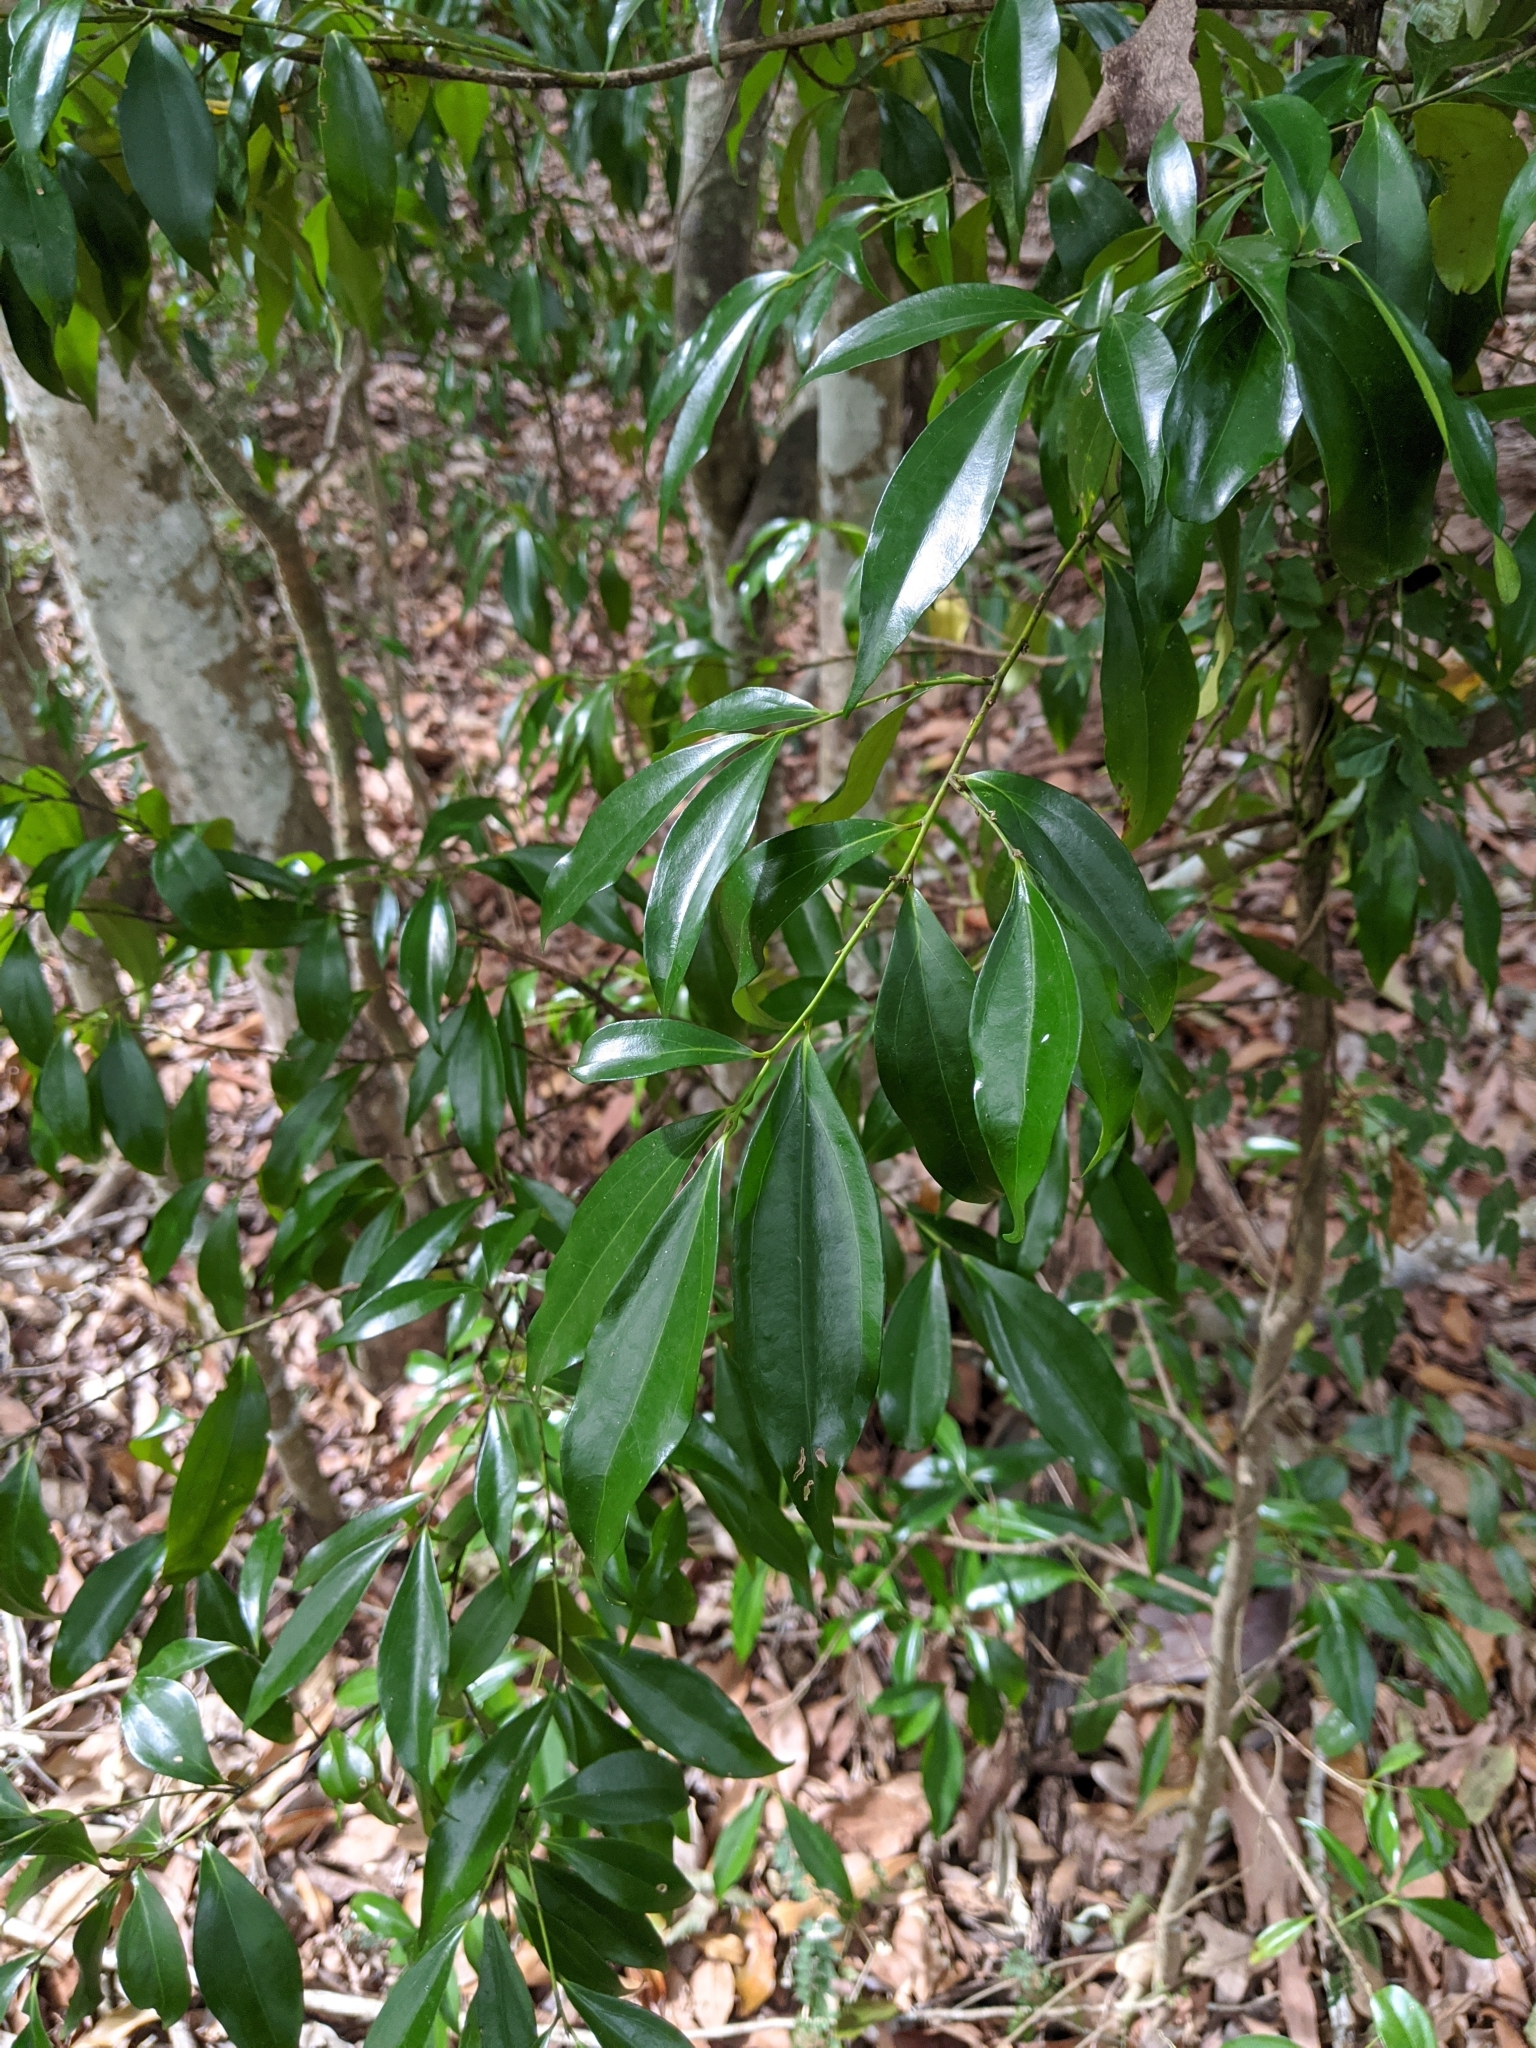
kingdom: Plantae
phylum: Tracheophyta
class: Magnoliopsida
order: Laurales
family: Lauraceae
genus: Cryptocarya
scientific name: Cryptocarya laevigata
